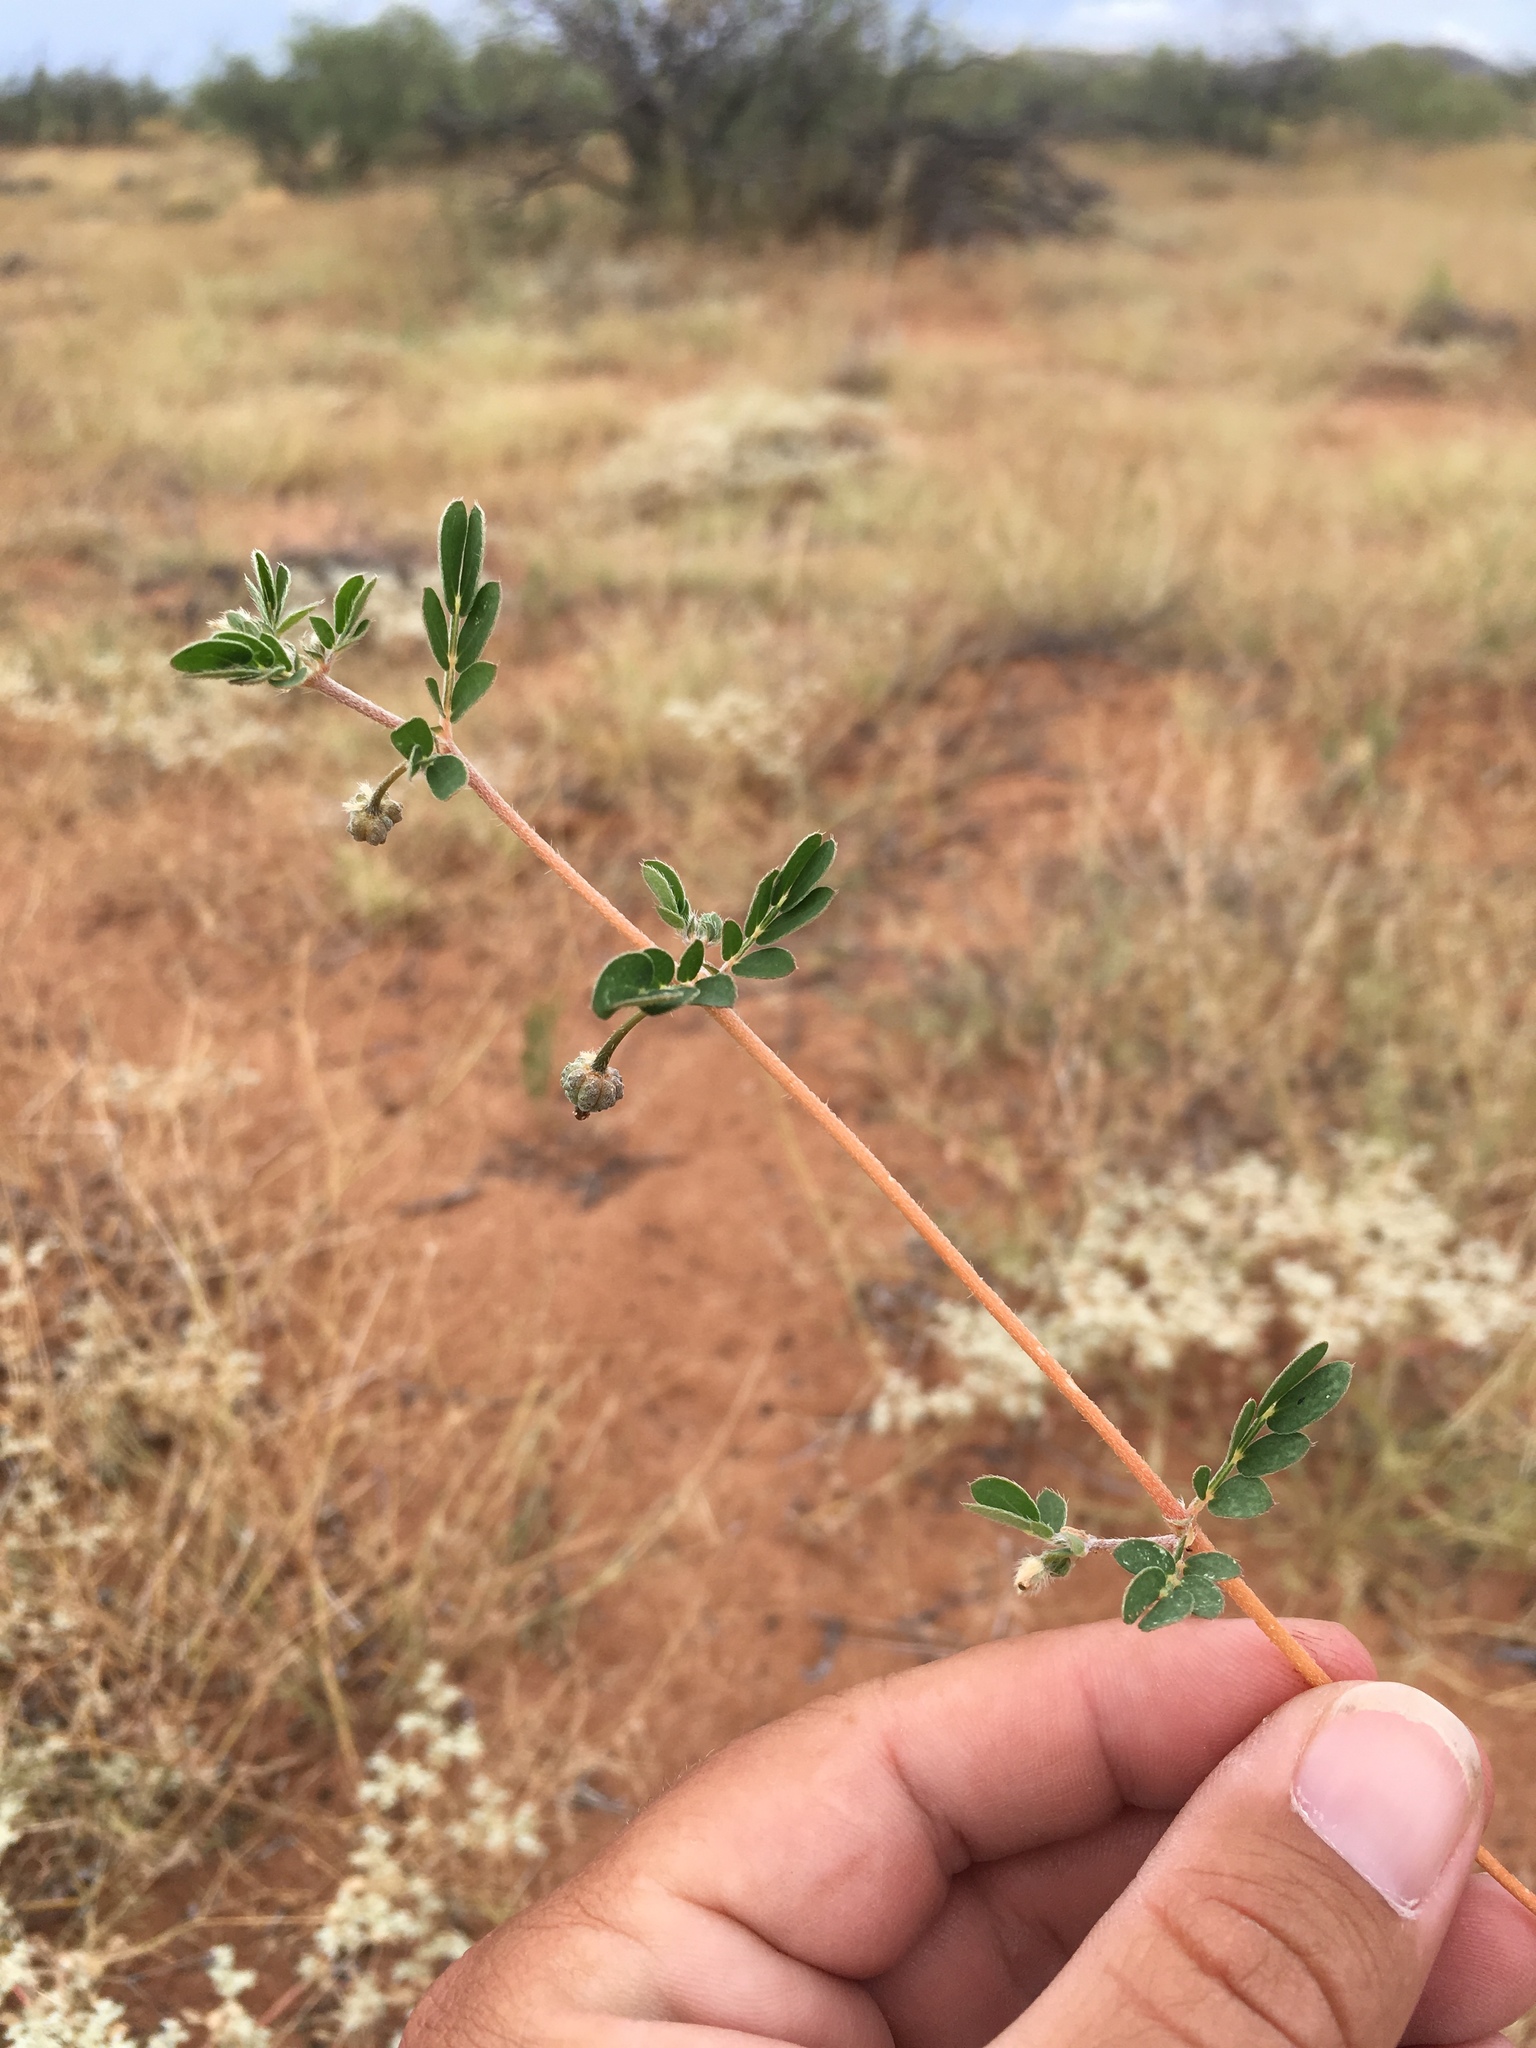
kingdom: Plantae
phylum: Tracheophyta
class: Magnoliopsida
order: Zygophyllales
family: Zygophyllaceae
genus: Kallstroemia
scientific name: Kallstroemia parviflora
